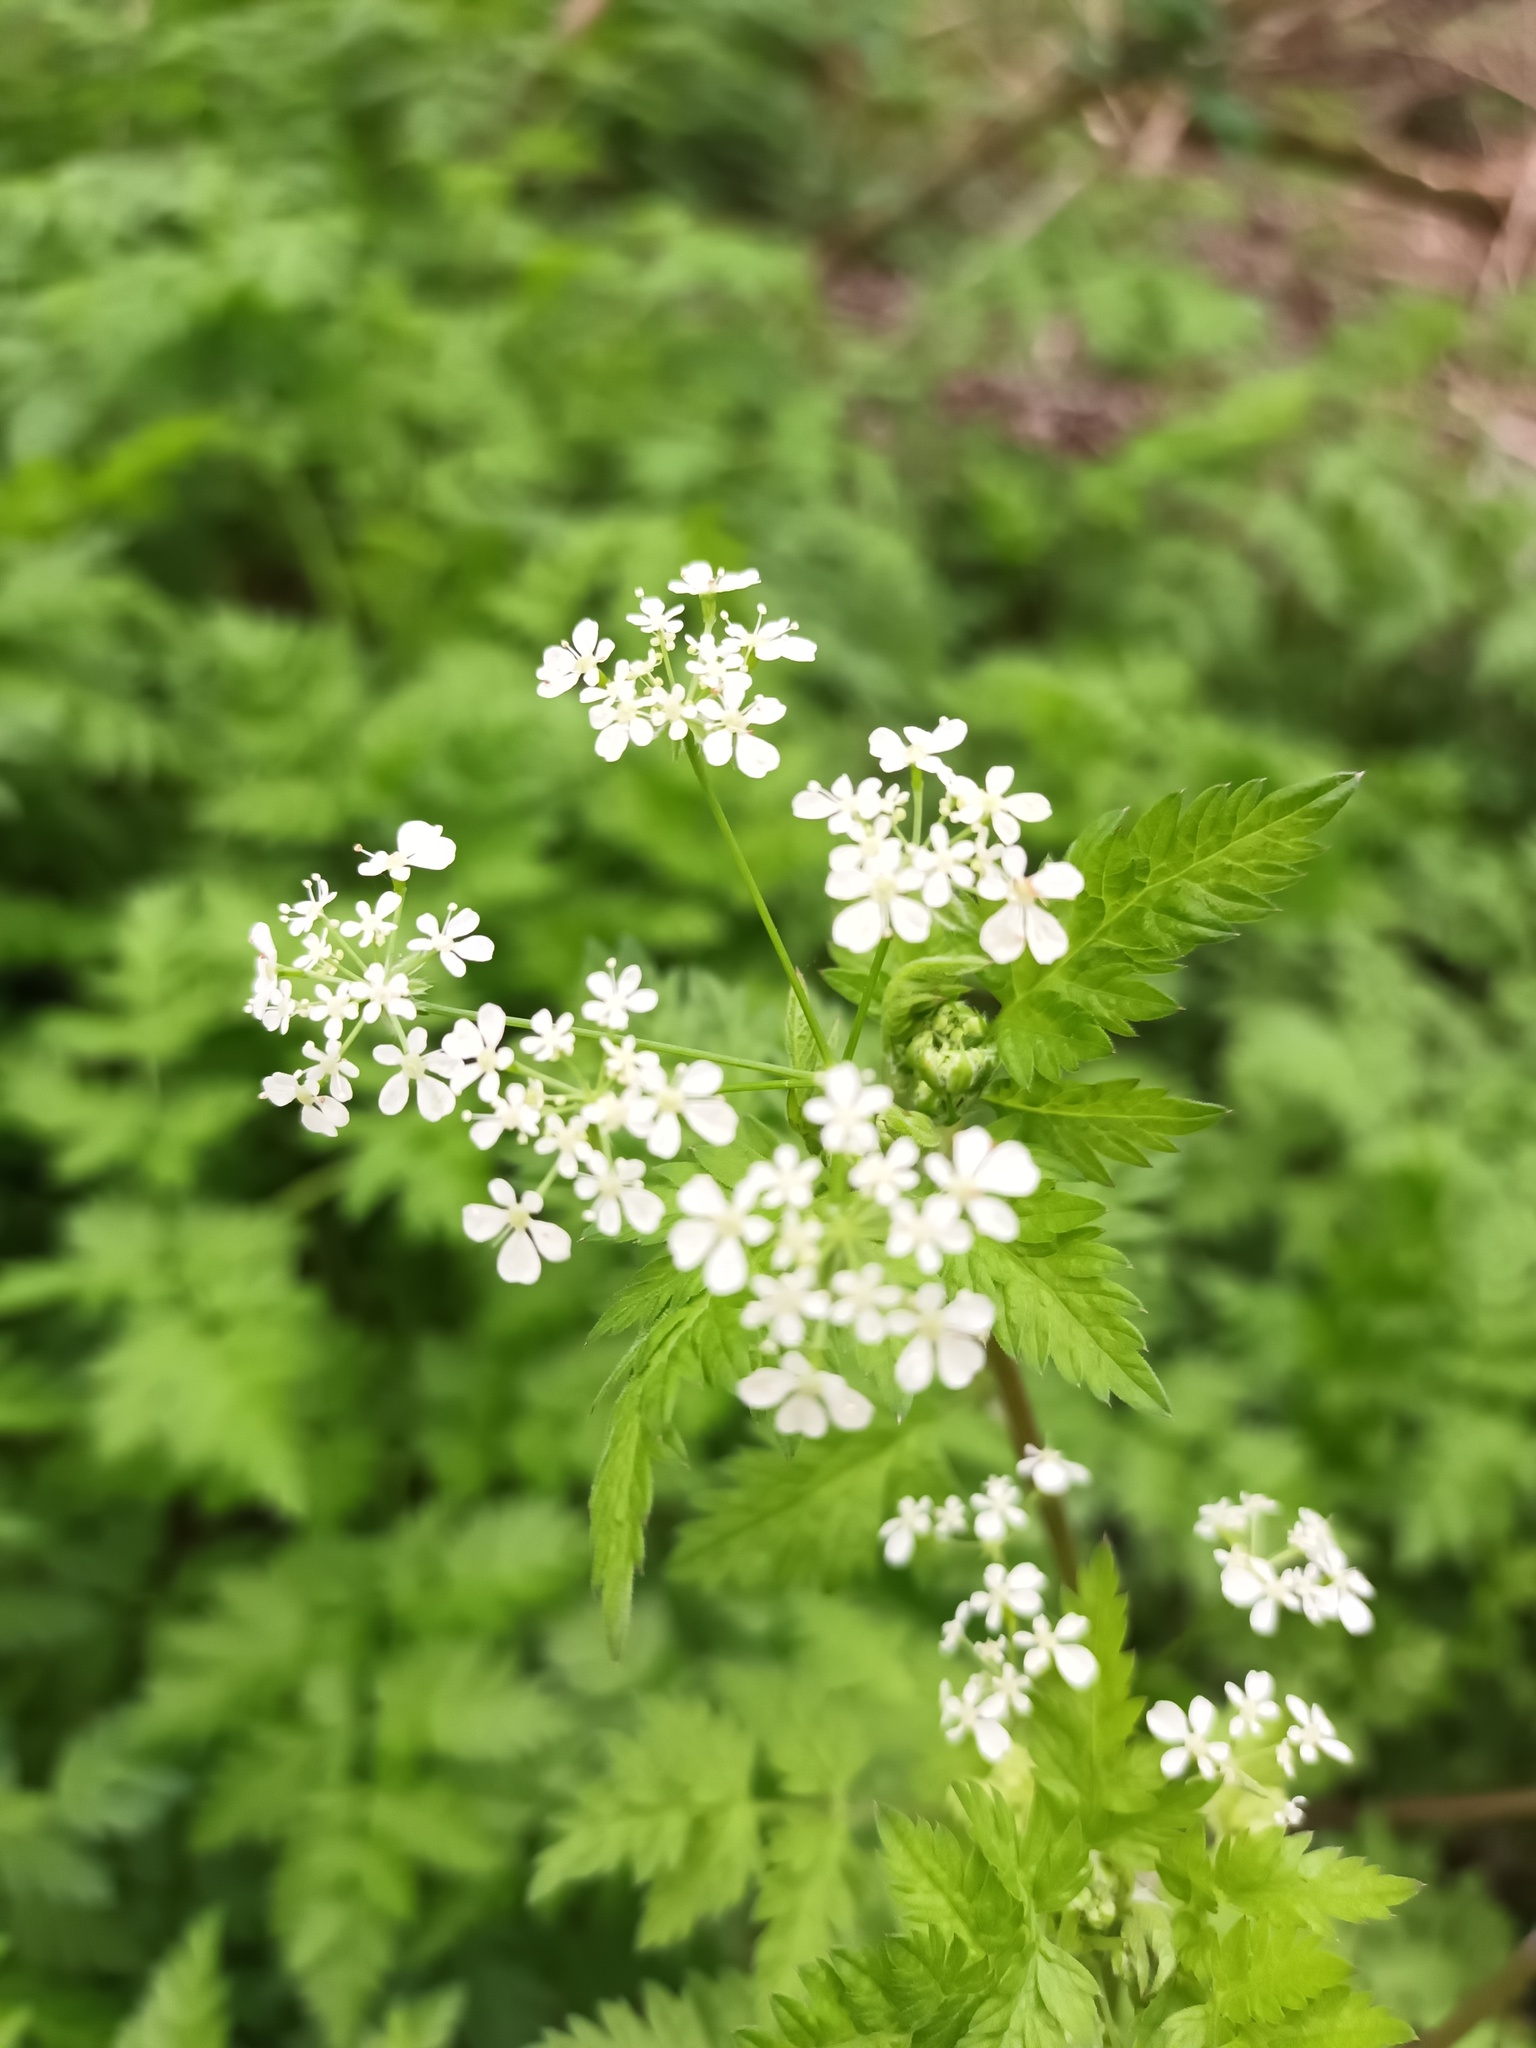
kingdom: Plantae
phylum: Tracheophyta
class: Magnoliopsida
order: Apiales
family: Apiaceae
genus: Anthriscus
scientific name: Anthriscus sylvestris
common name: Cow parsley
